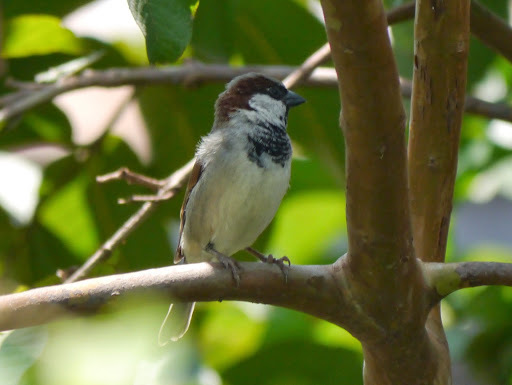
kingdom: Animalia
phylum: Chordata
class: Aves
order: Passeriformes
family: Passeridae
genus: Passer
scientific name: Passer domesticus
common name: House sparrow
